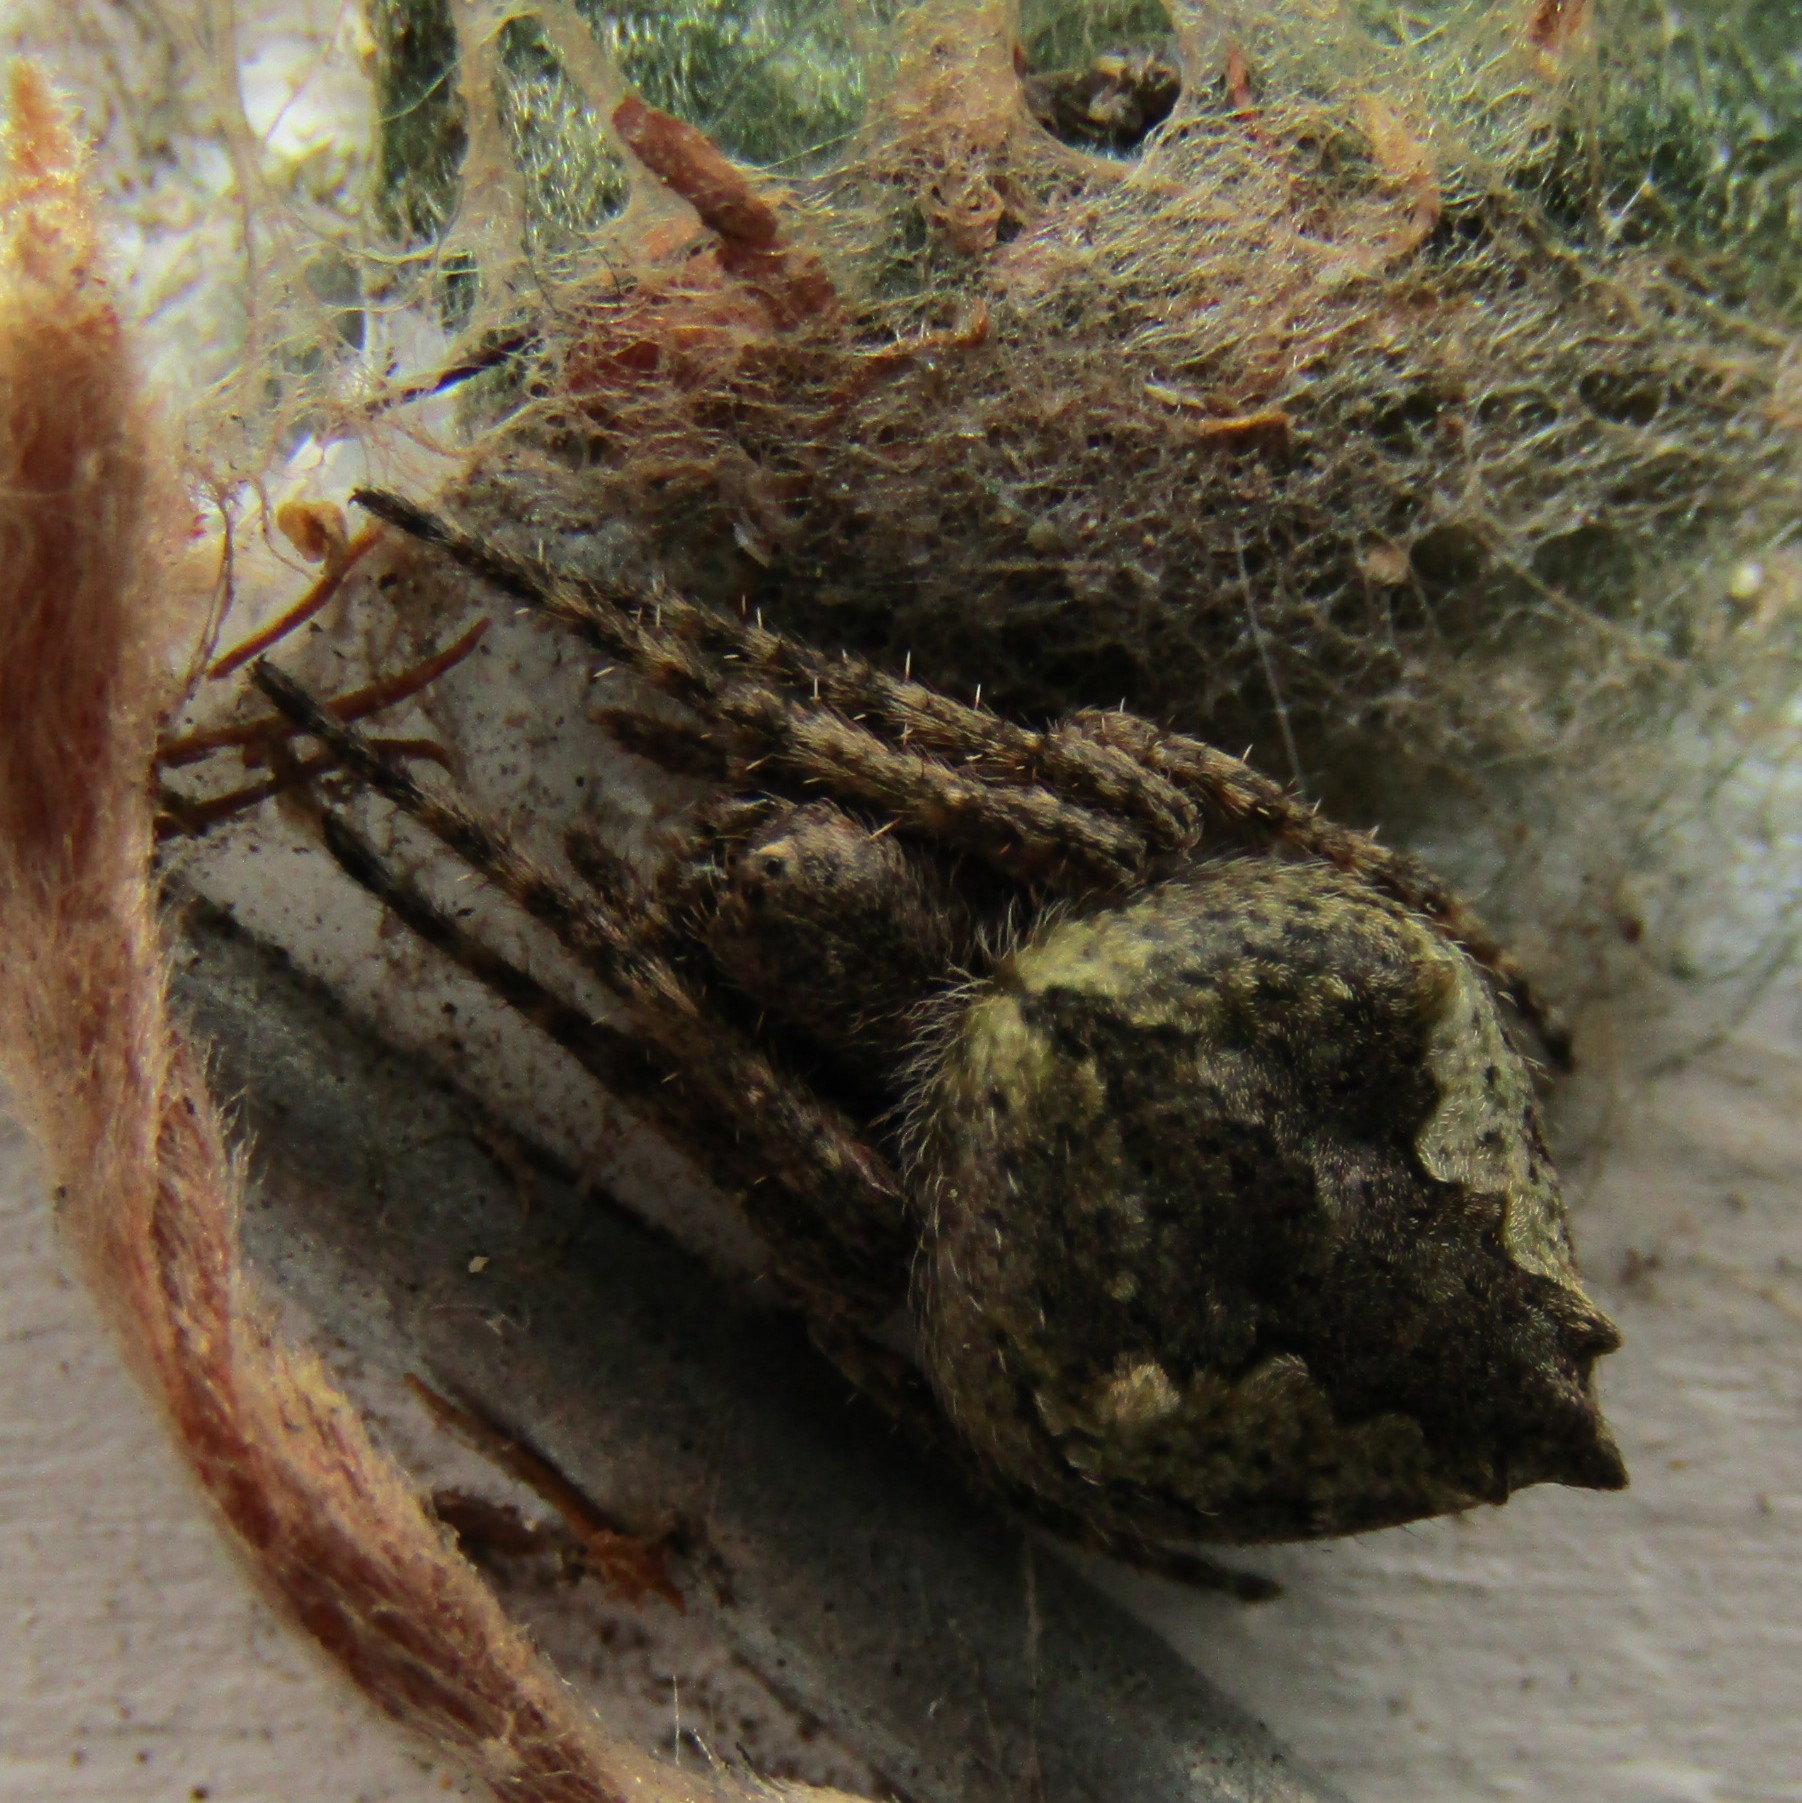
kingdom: Animalia
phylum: Arthropoda
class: Arachnida
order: Araneae
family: Araneidae
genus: Eriophora
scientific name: Eriophora pustulosa
